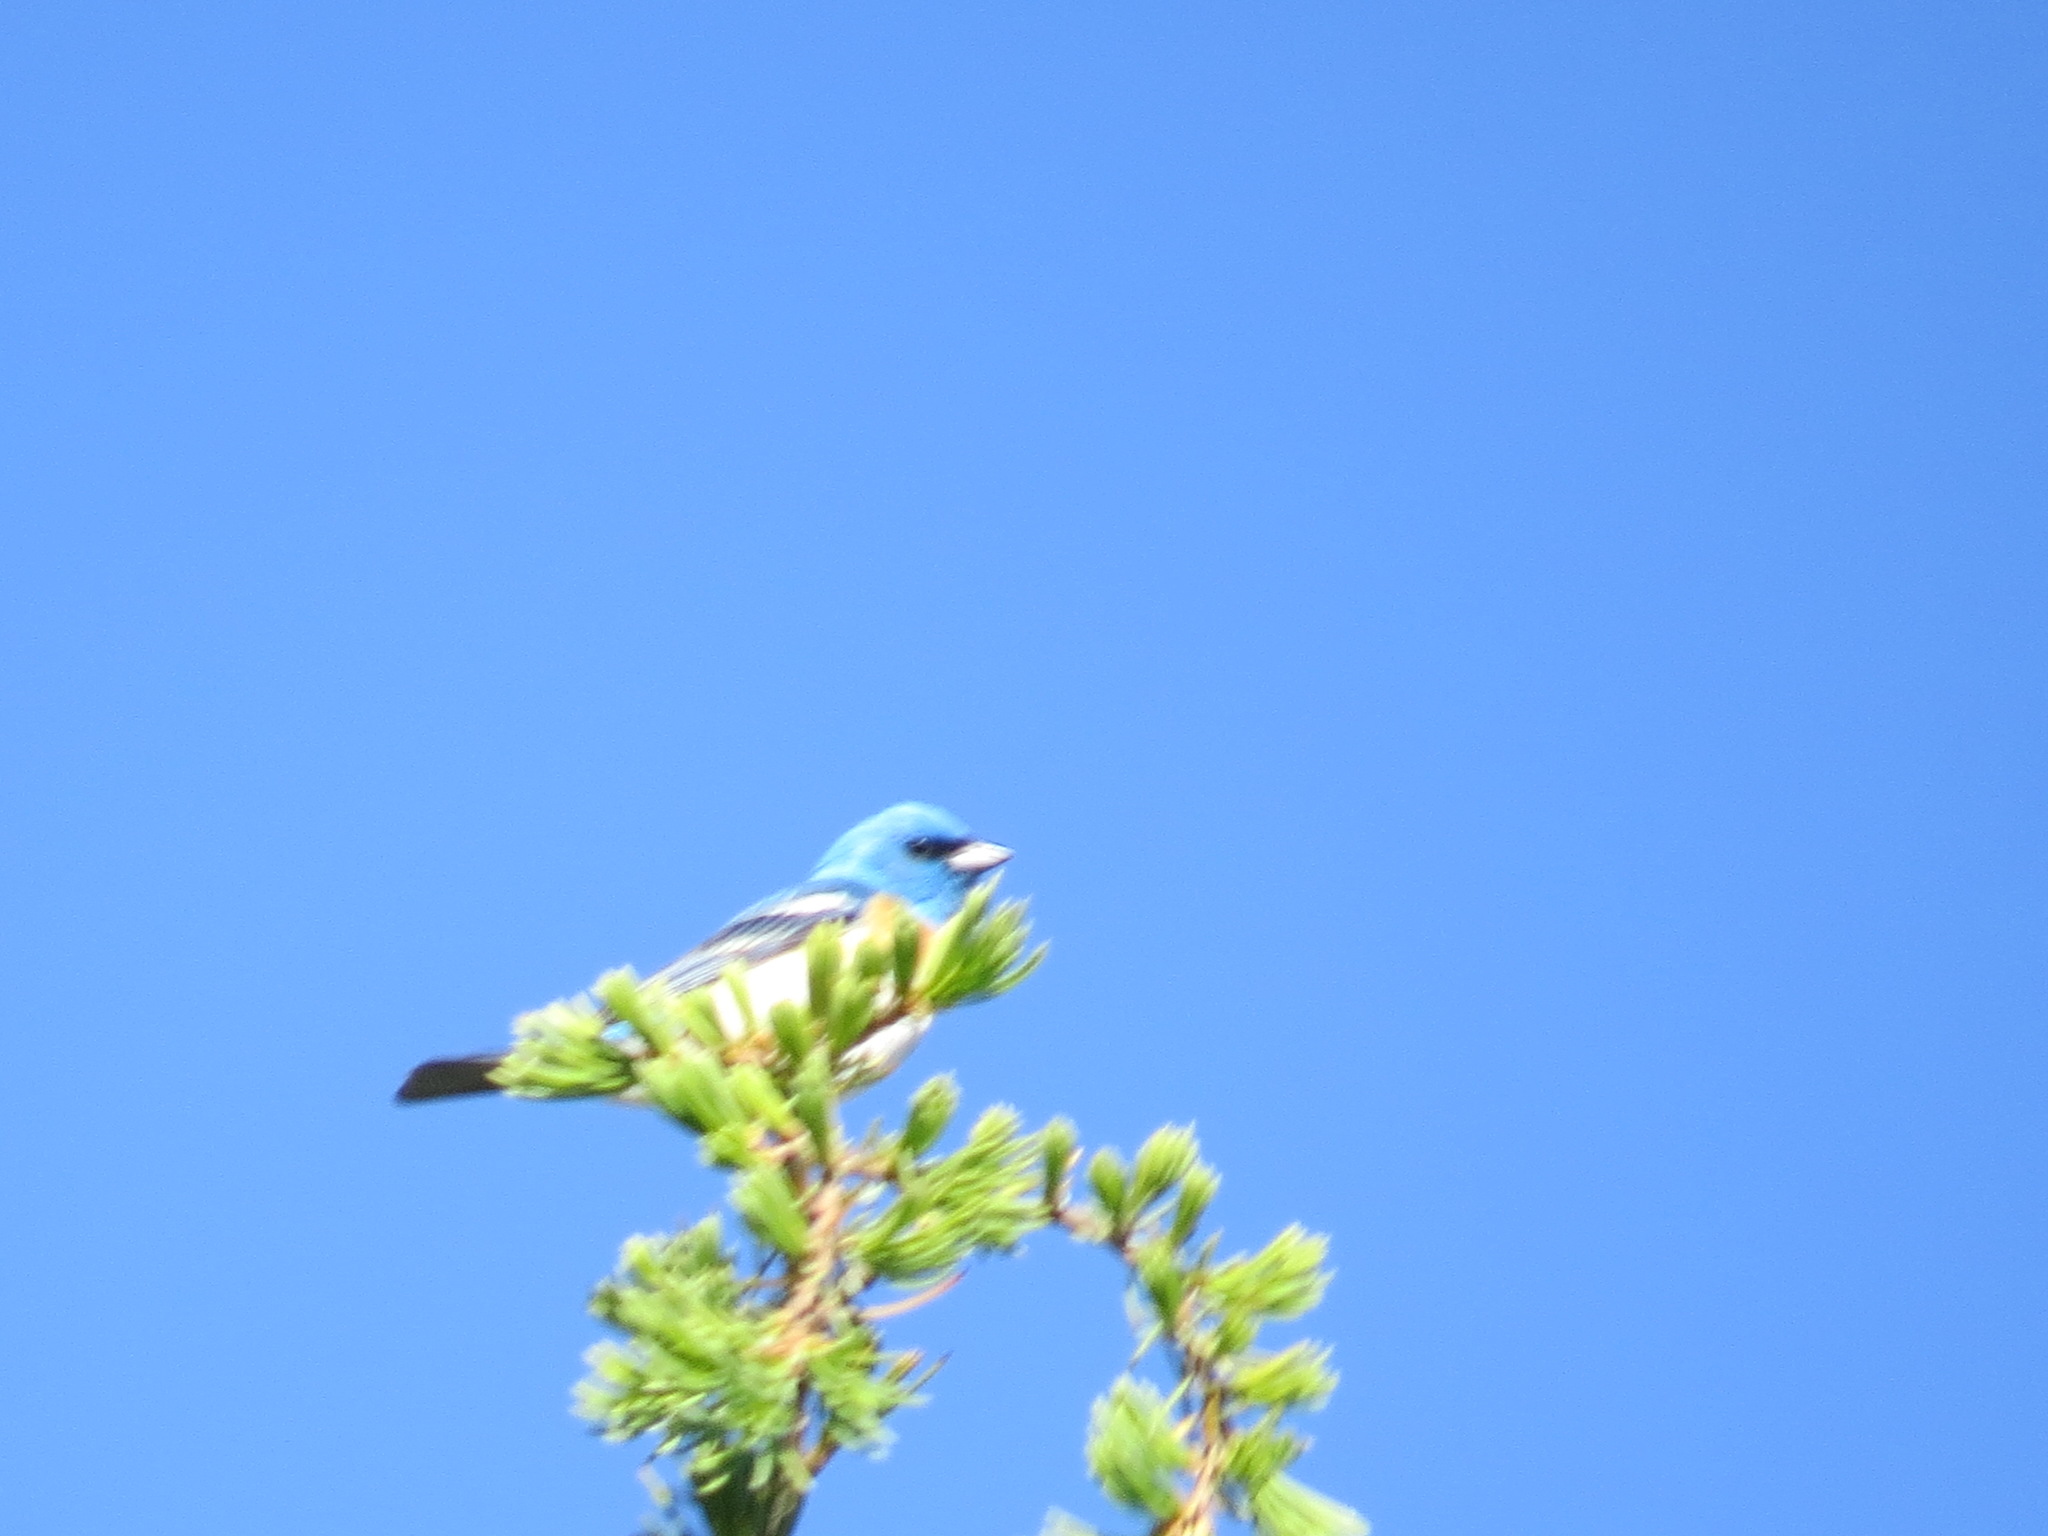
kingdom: Animalia
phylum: Chordata
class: Aves
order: Passeriformes
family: Cardinalidae
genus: Passerina
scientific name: Passerina amoena
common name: Lazuli bunting
